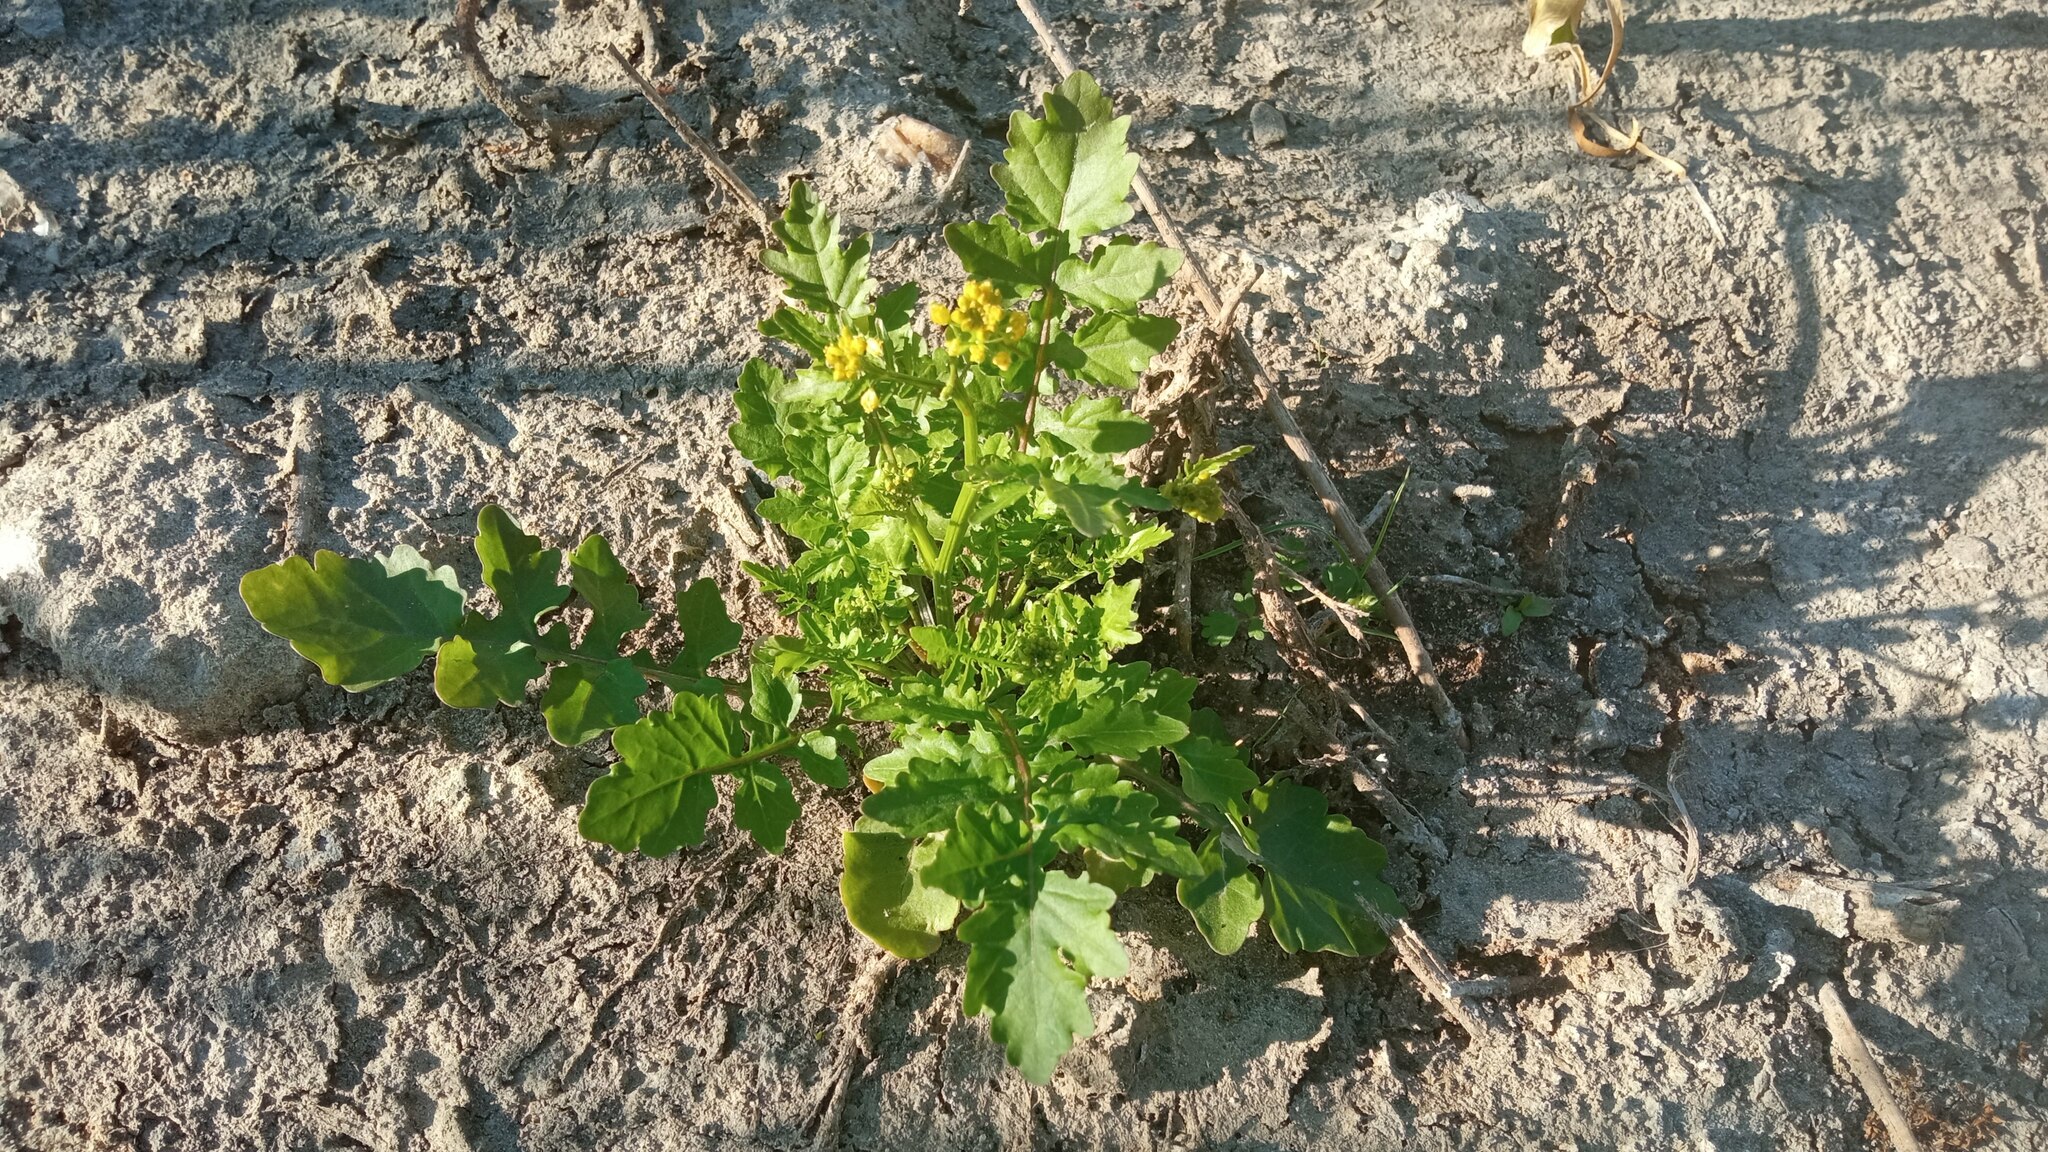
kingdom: Plantae
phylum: Tracheophyta
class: Magnoliopsida
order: Brassicales
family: Brassicaceae
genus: Rorippa
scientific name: Rorippa palustris
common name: Marsh yellow-cress
